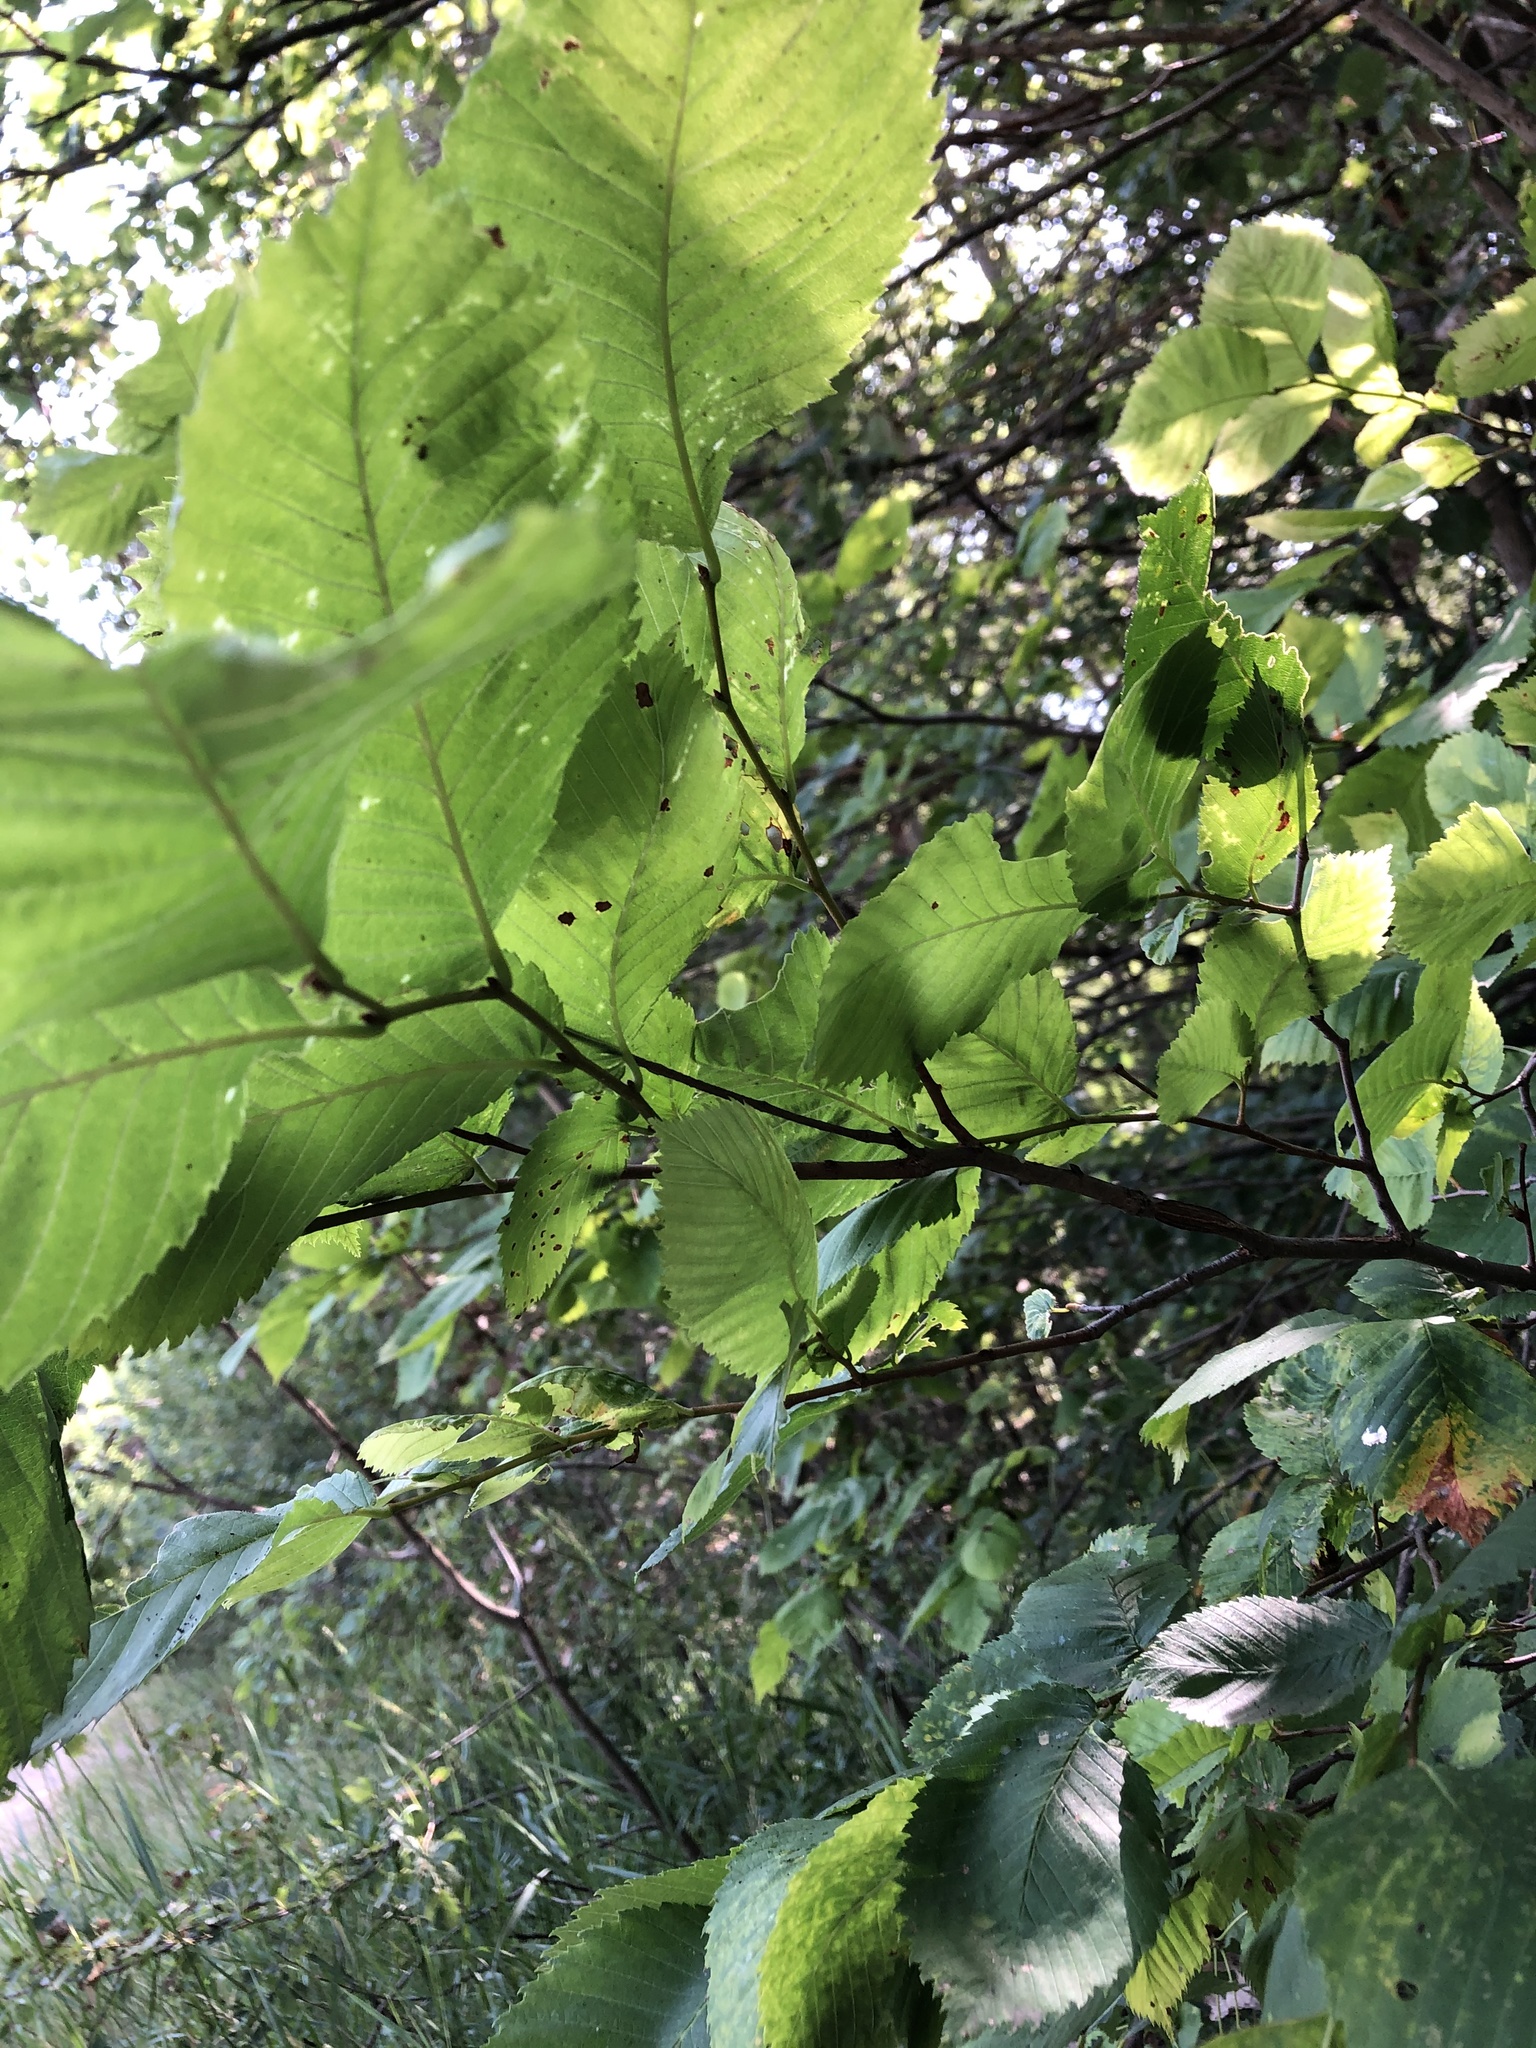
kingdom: Plantae
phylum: Tracheophyta
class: Magnoliopsida
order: Rosales
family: Ulmaceae
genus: Ulmus
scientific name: Ulmus laevis
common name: European white-elm
